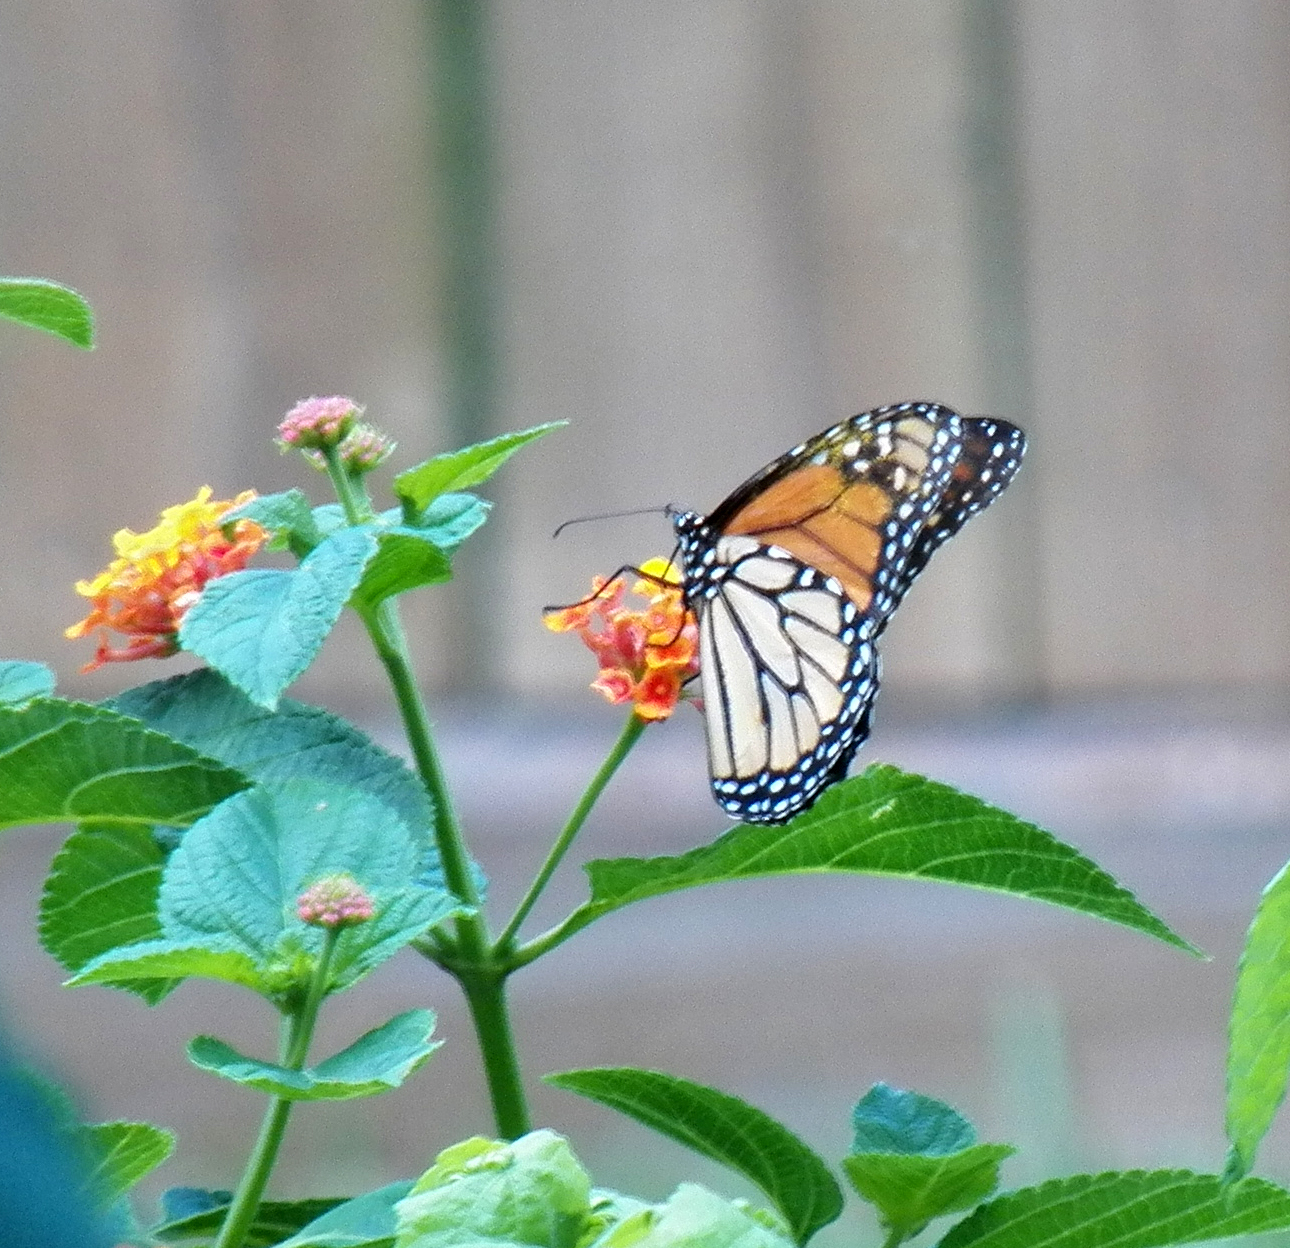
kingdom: Animalia
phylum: Arthropoda
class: Insecta
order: Lepidoptera
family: Nymphalidae
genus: Danaus
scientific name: Danaus plexippus
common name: Monarch
